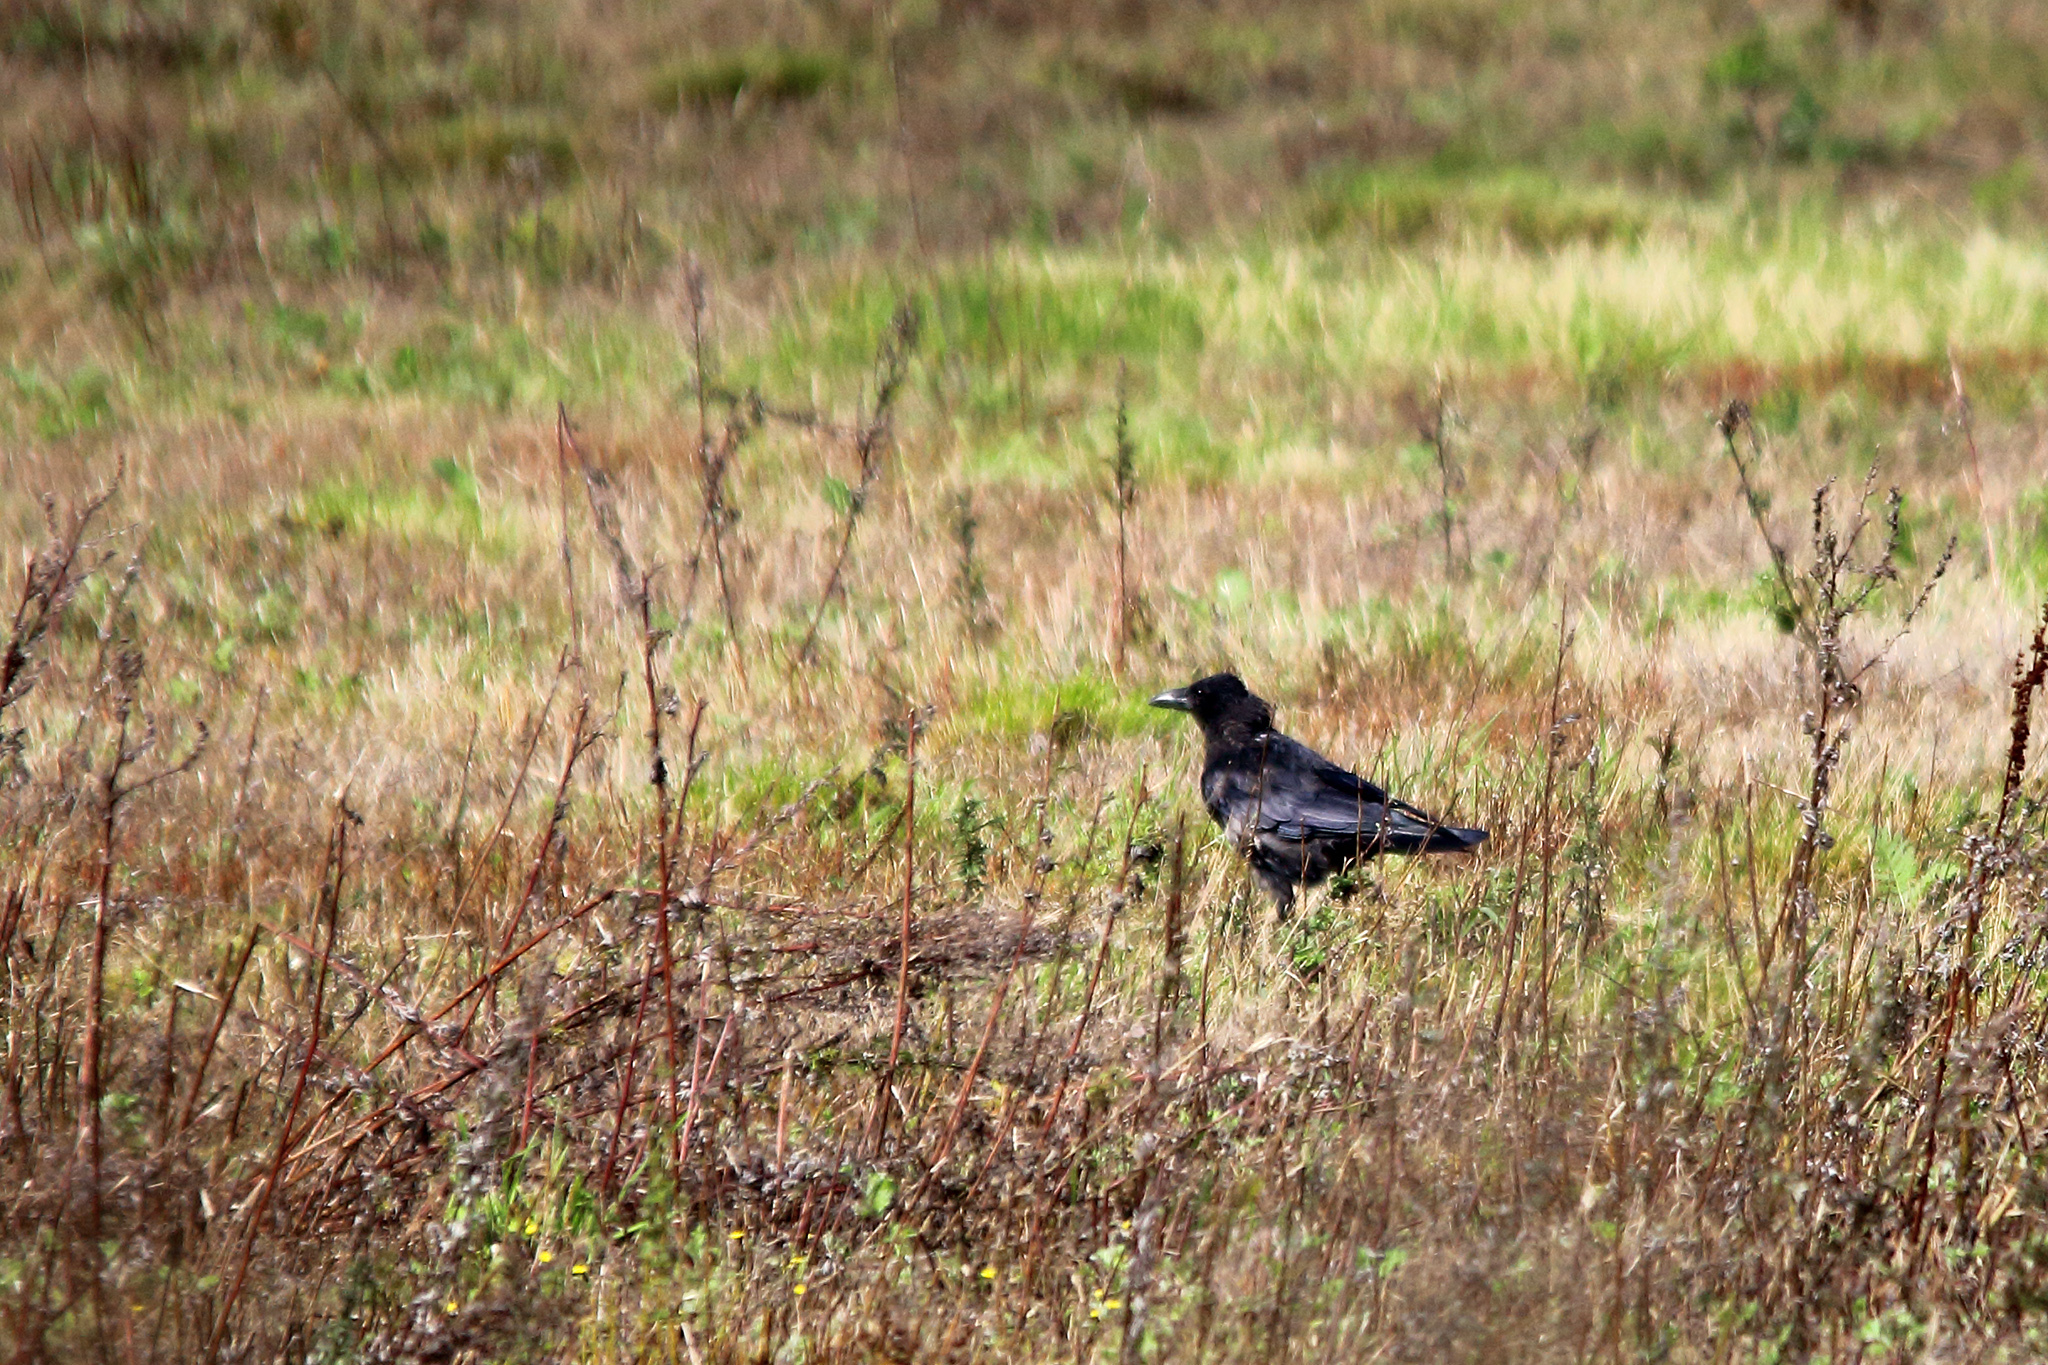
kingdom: Animalia
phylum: Chordata
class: Aves
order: Passeriformes
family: Corvidae
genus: Corvus
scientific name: Corvus corax
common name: Common raven
